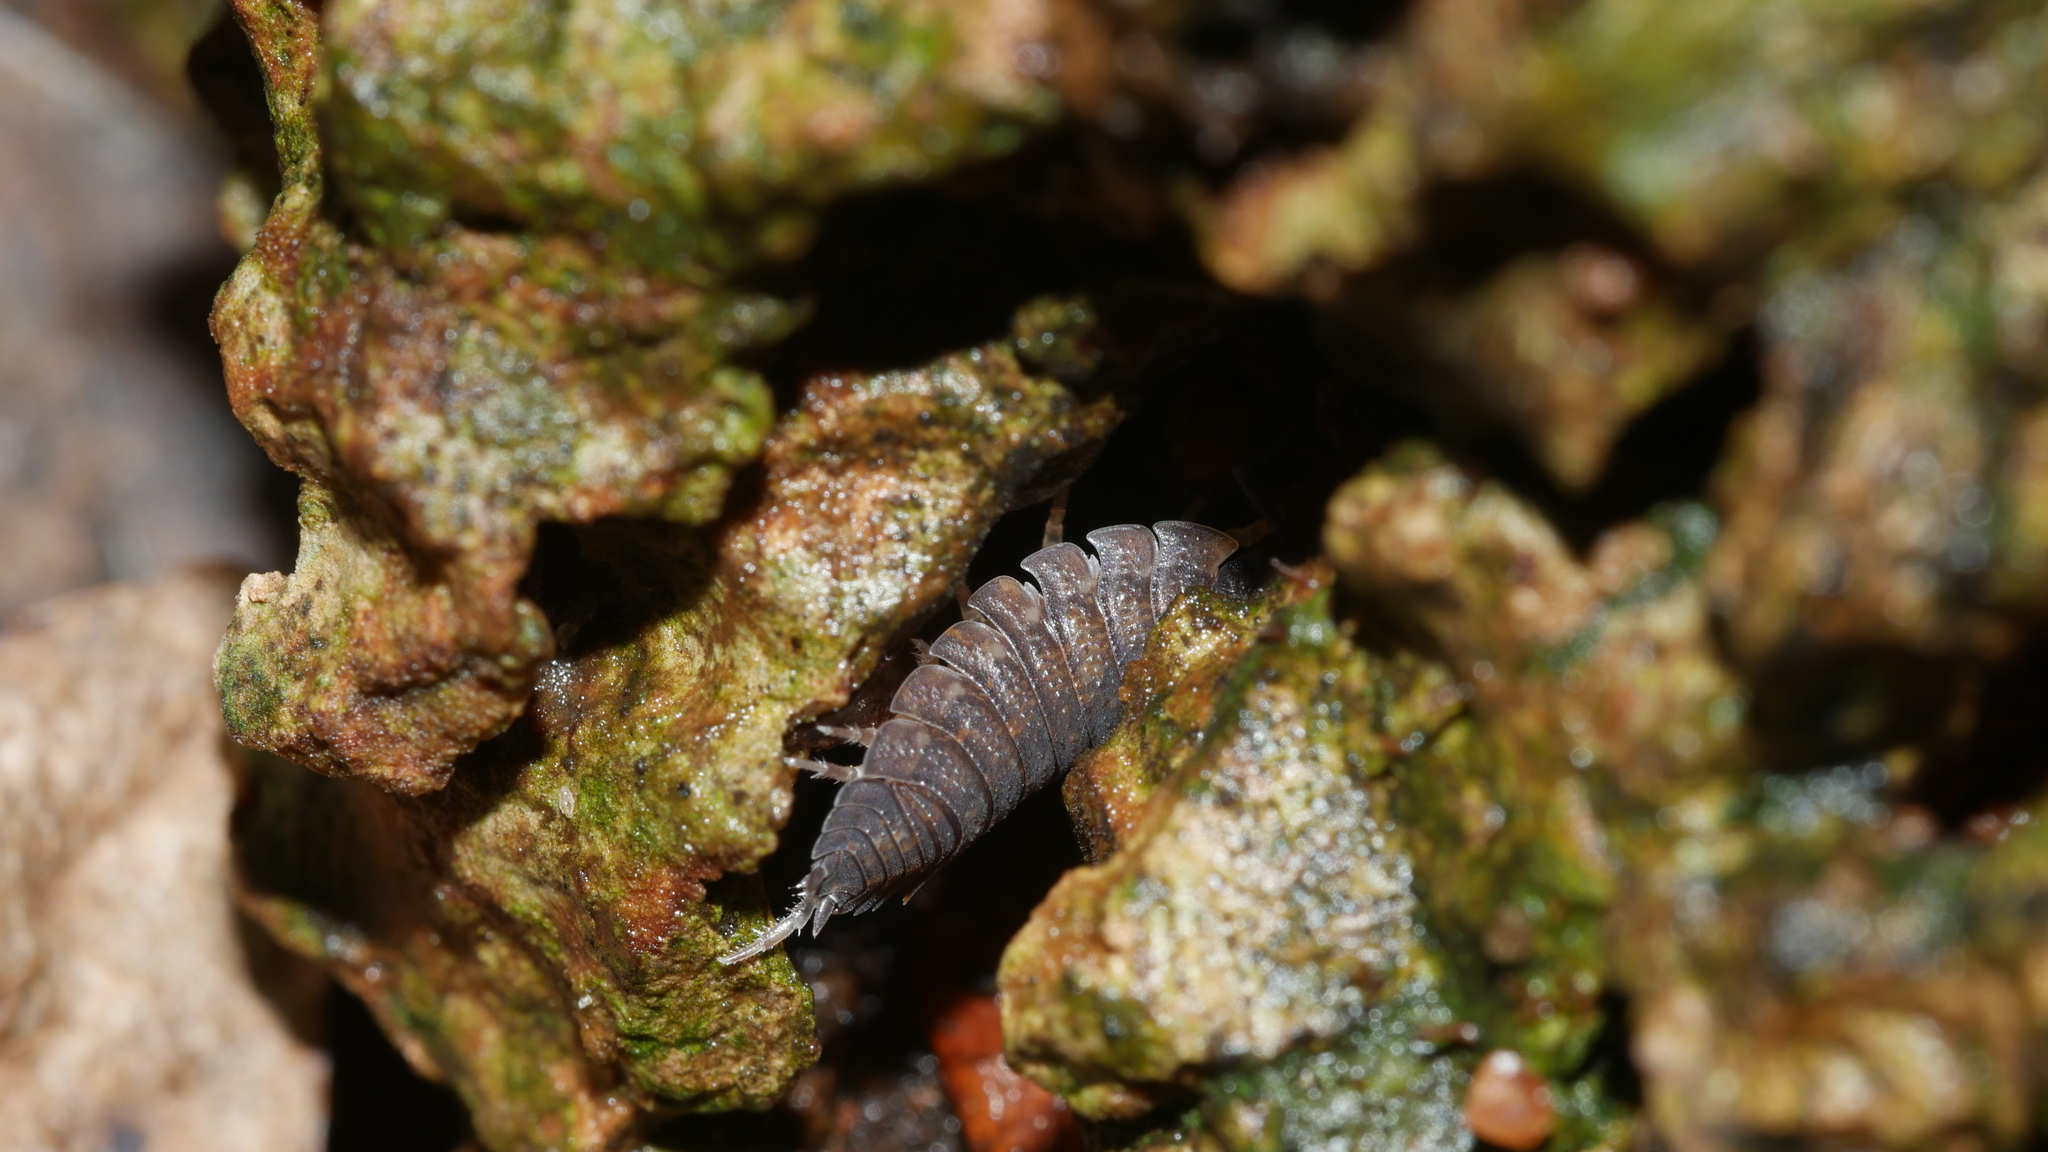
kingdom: Animalia
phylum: Arthropoda
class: Malacostraca
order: Isopoda
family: Porcellionidae
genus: Porcellio
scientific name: Porcellio scaber
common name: Common rough woodlouse
